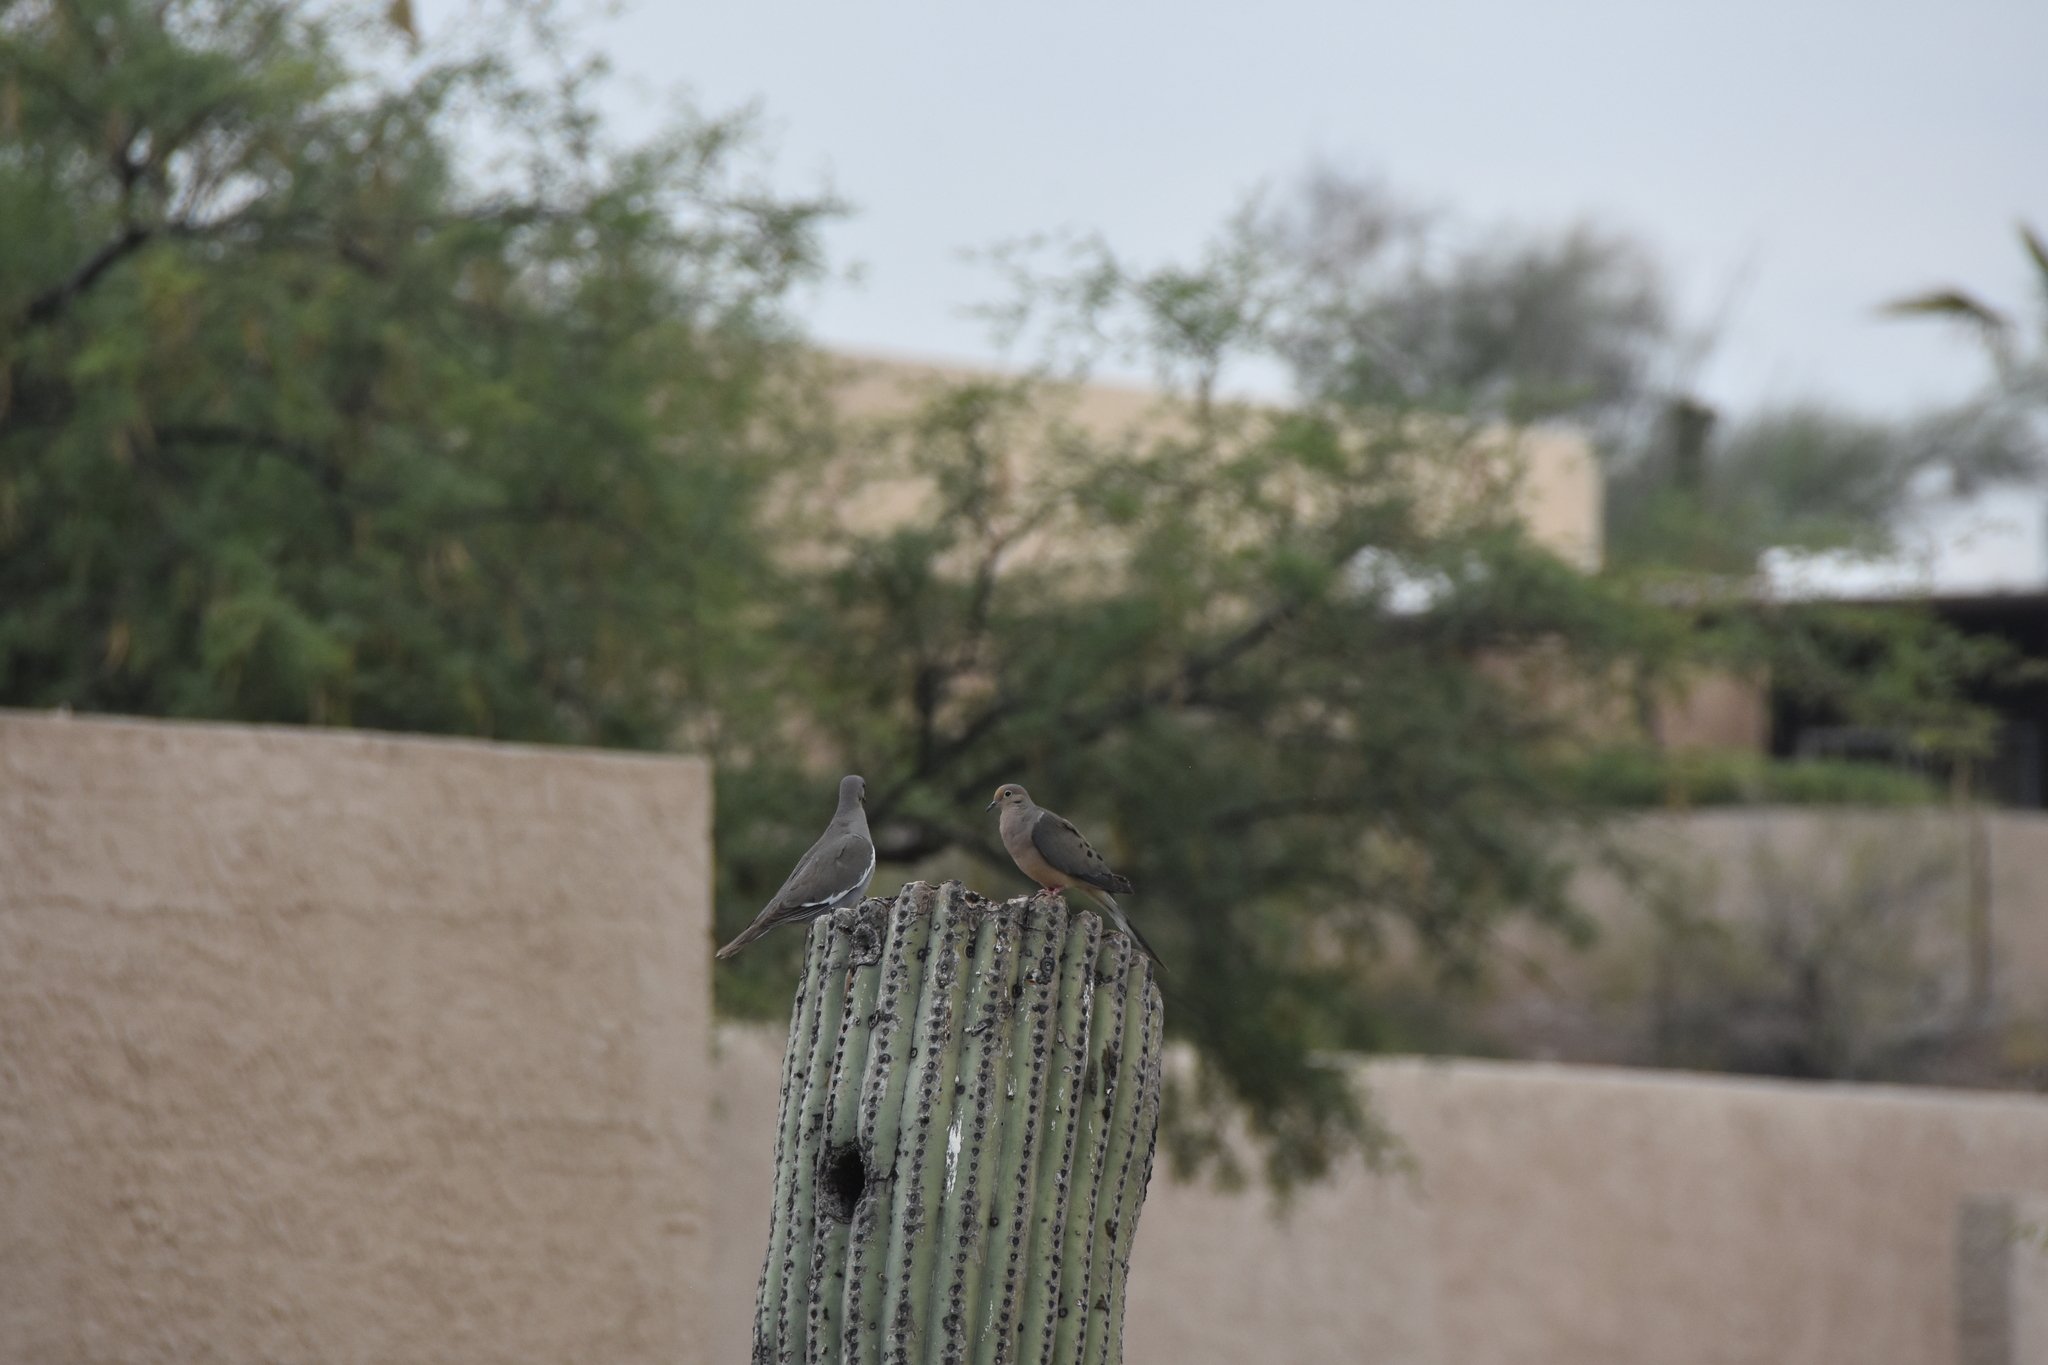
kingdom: Animalia
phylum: Chordata
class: Aves
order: Columbiformes
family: Columbidae
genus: Zenaida
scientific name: Zenaida macroura
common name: Mourning dove
